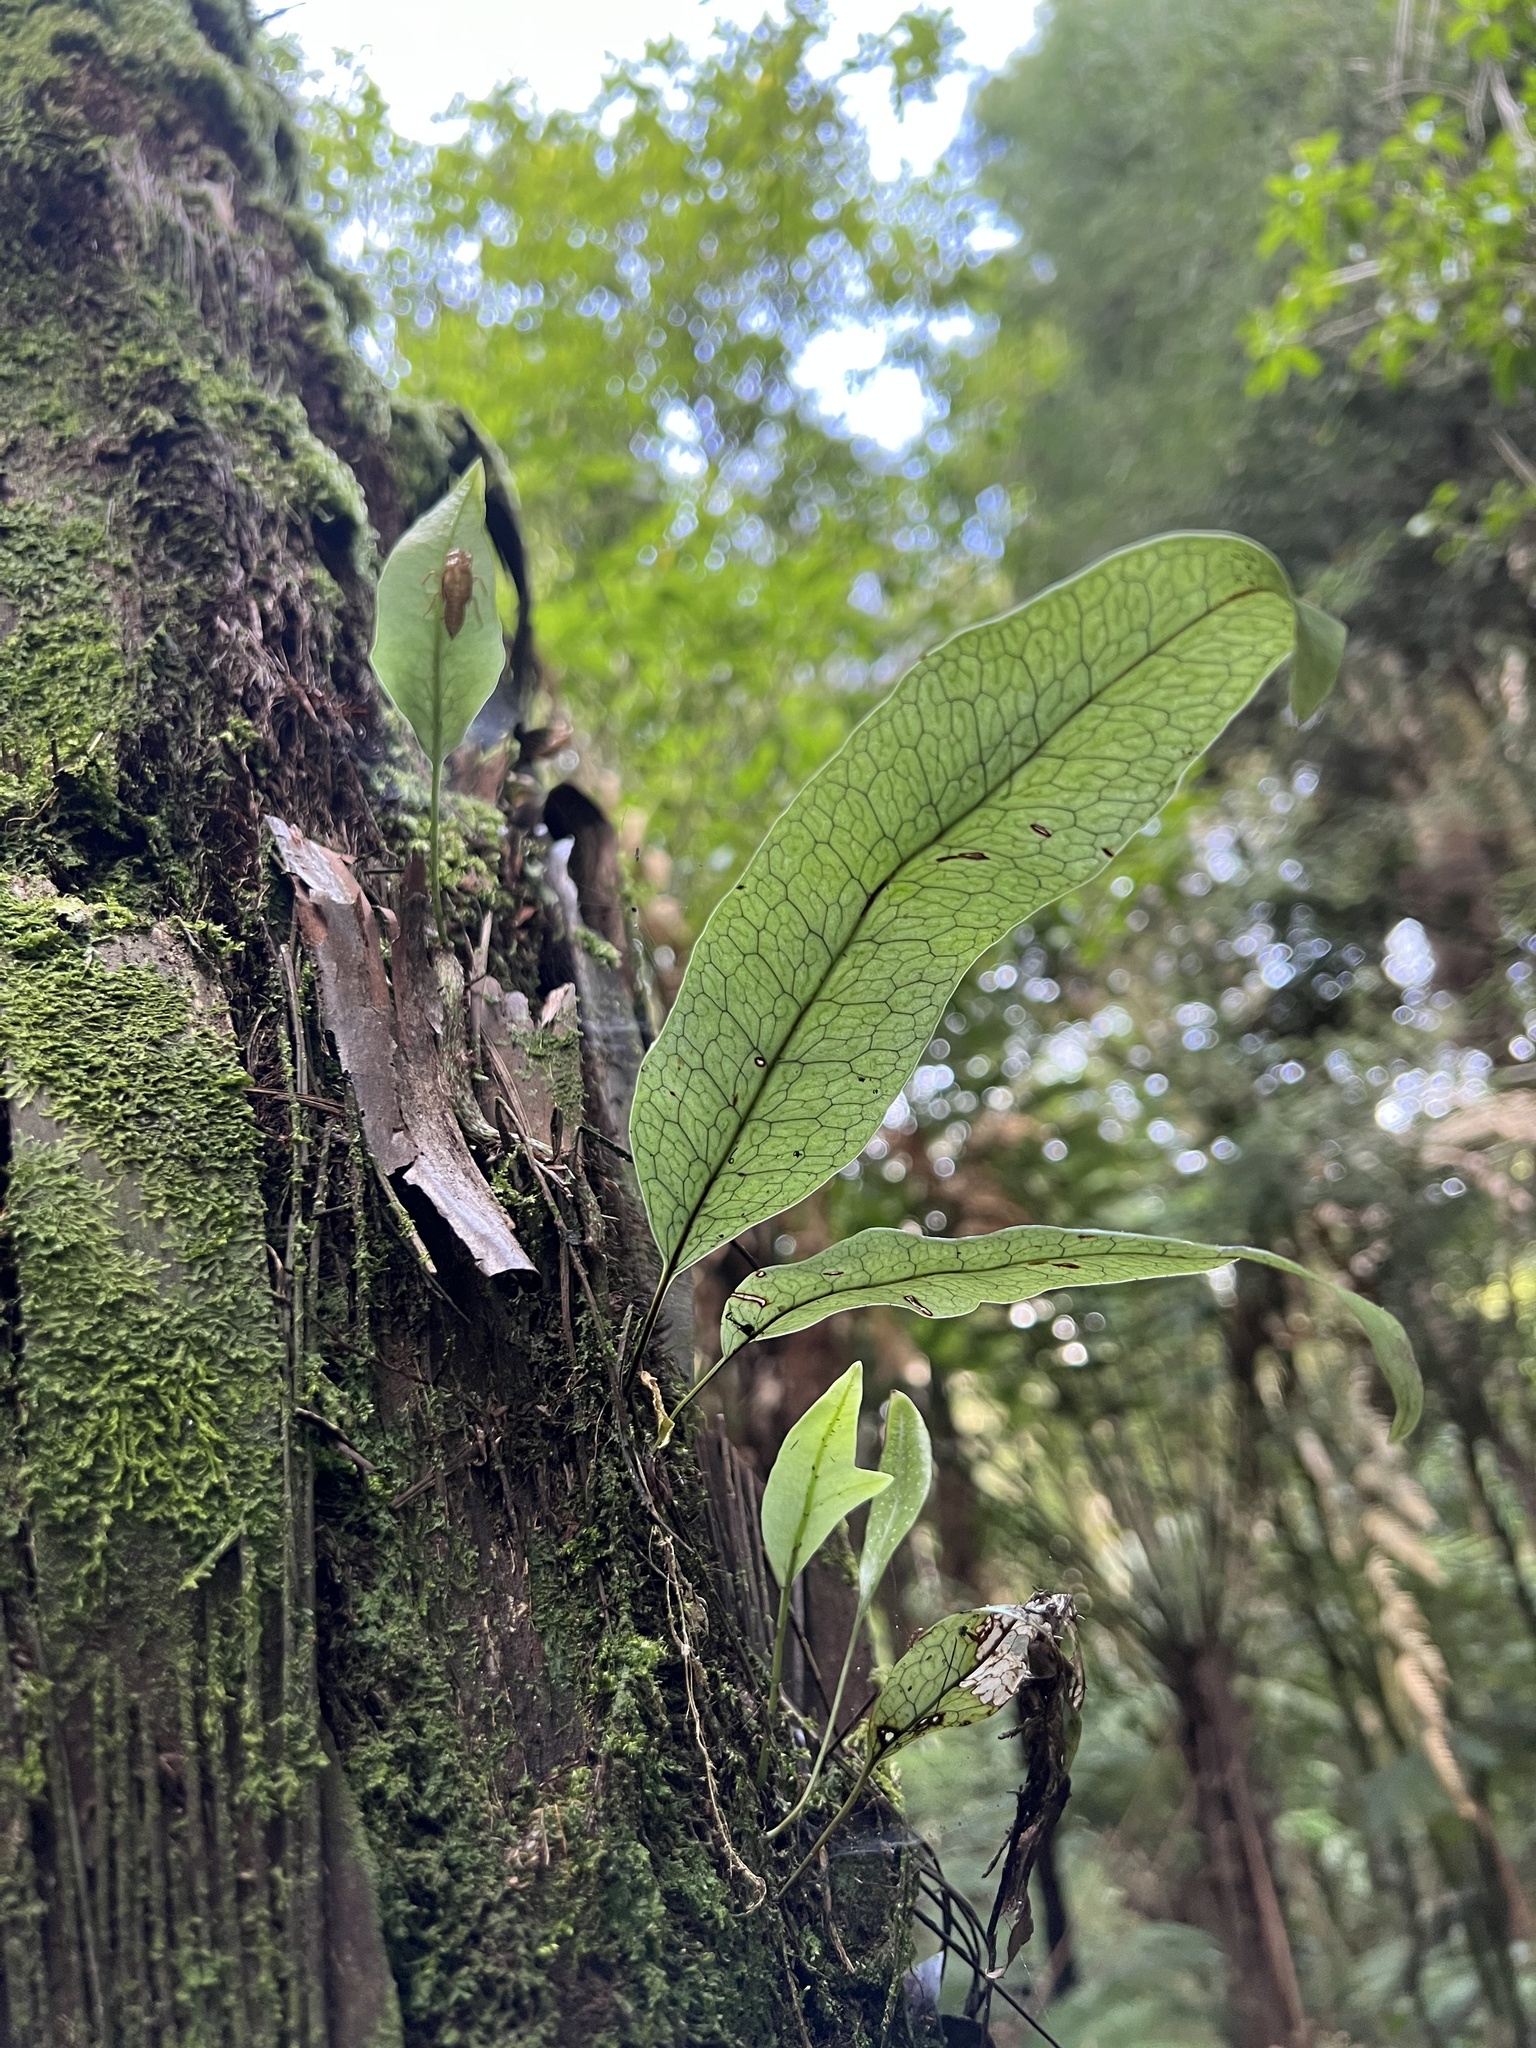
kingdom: Plantae
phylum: Tracheophyta
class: Polypodiopsida
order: Polypodiales
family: Polypodiaceae
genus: Lecanopteris
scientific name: Lecanopteris pustulata
